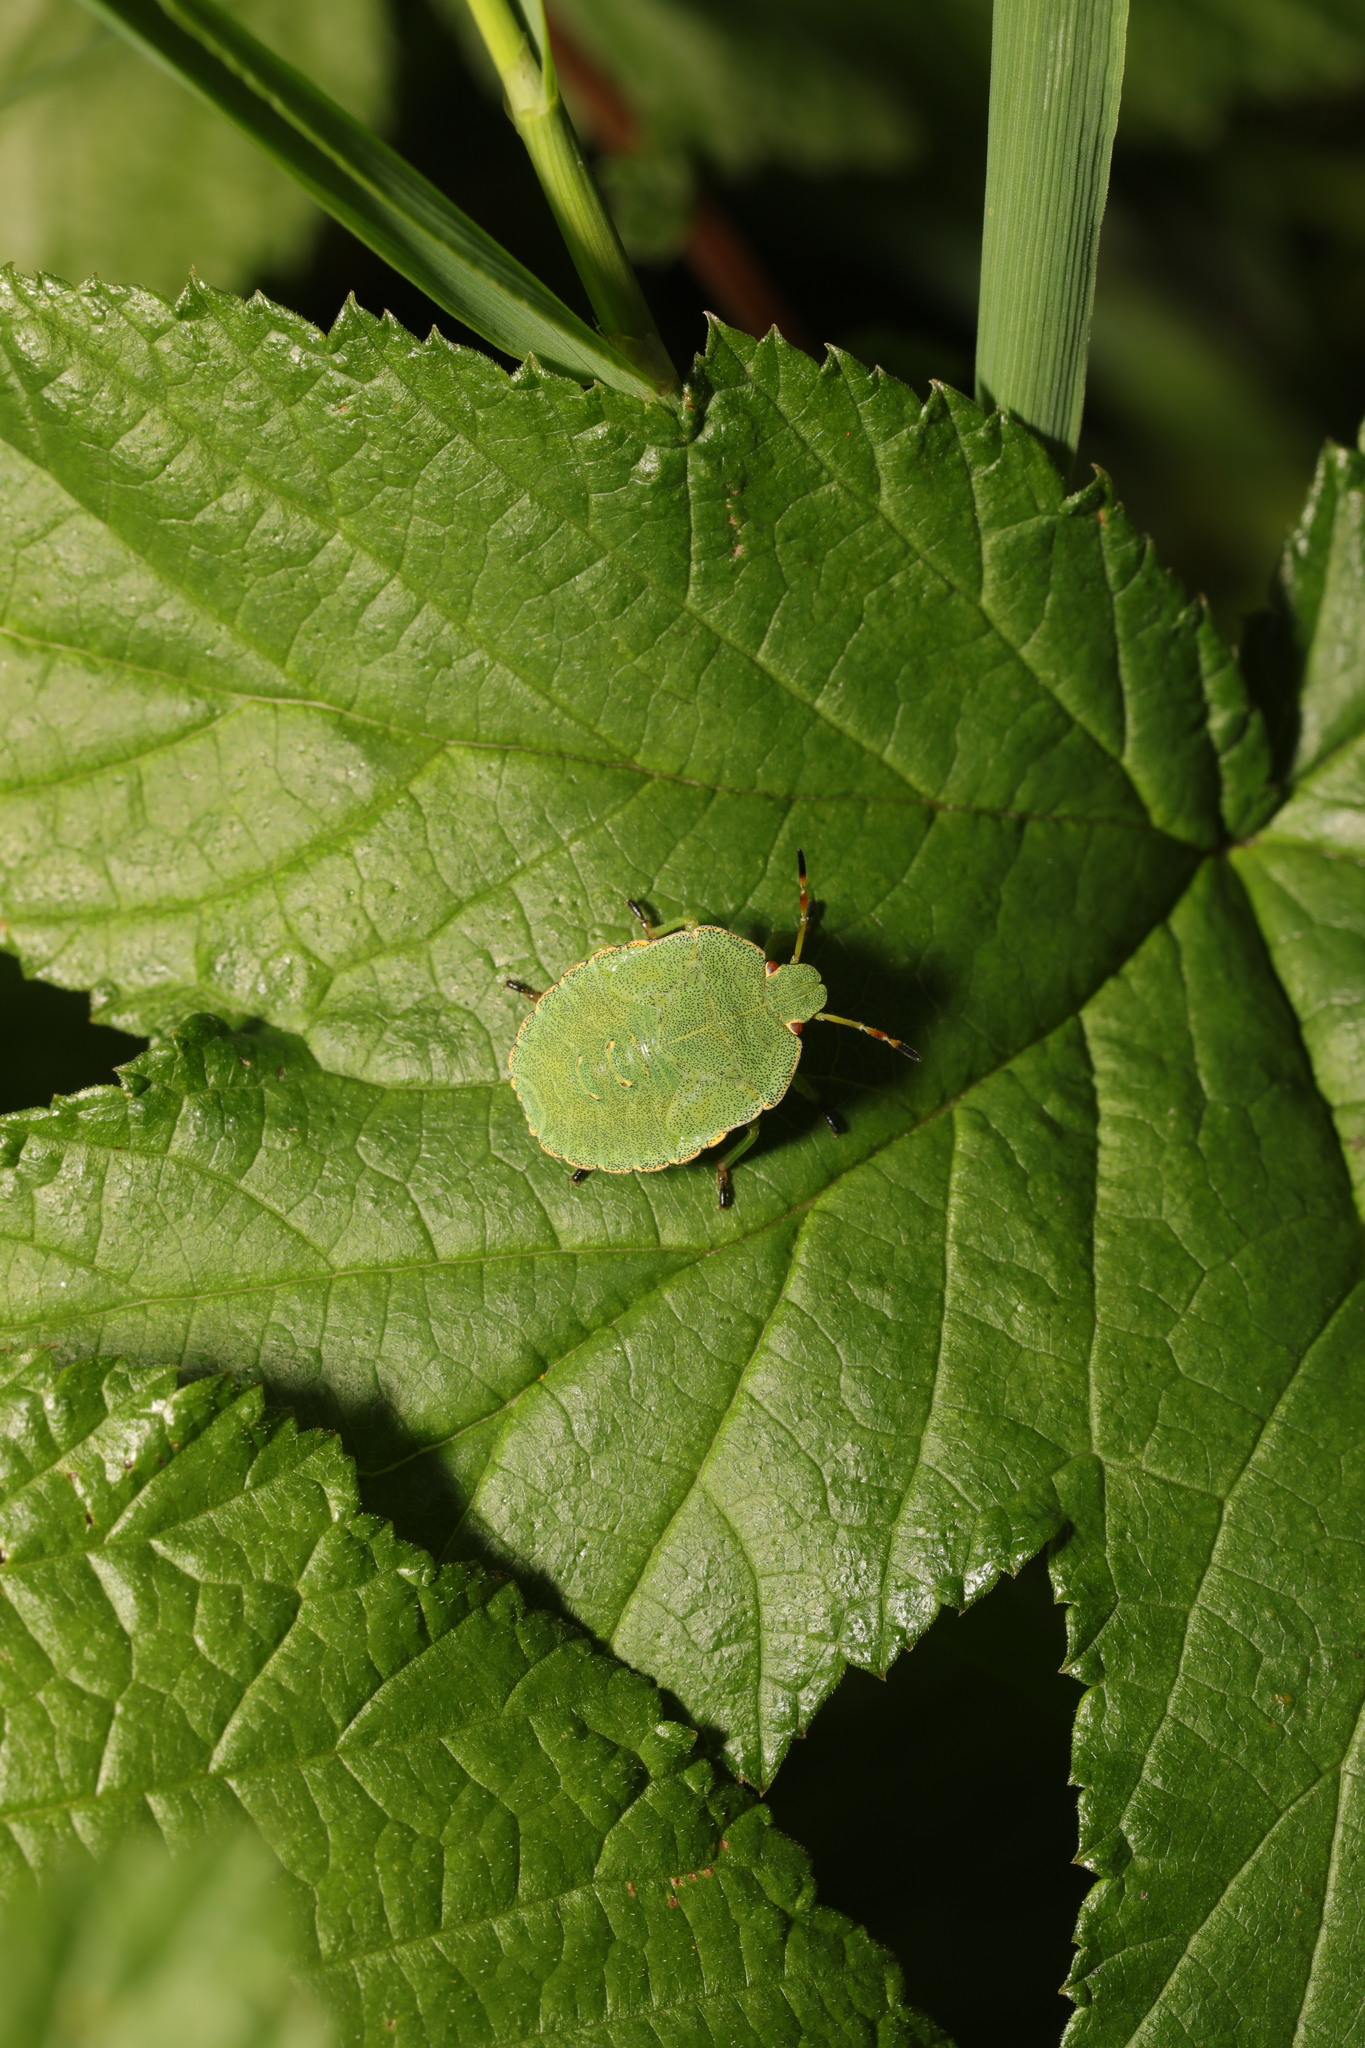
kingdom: Animalia
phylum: Arthropoda
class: Insecta
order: Hemiptera
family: Pentatomidae
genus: Palomena
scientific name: Palomena prasina
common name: Green shieldbug
